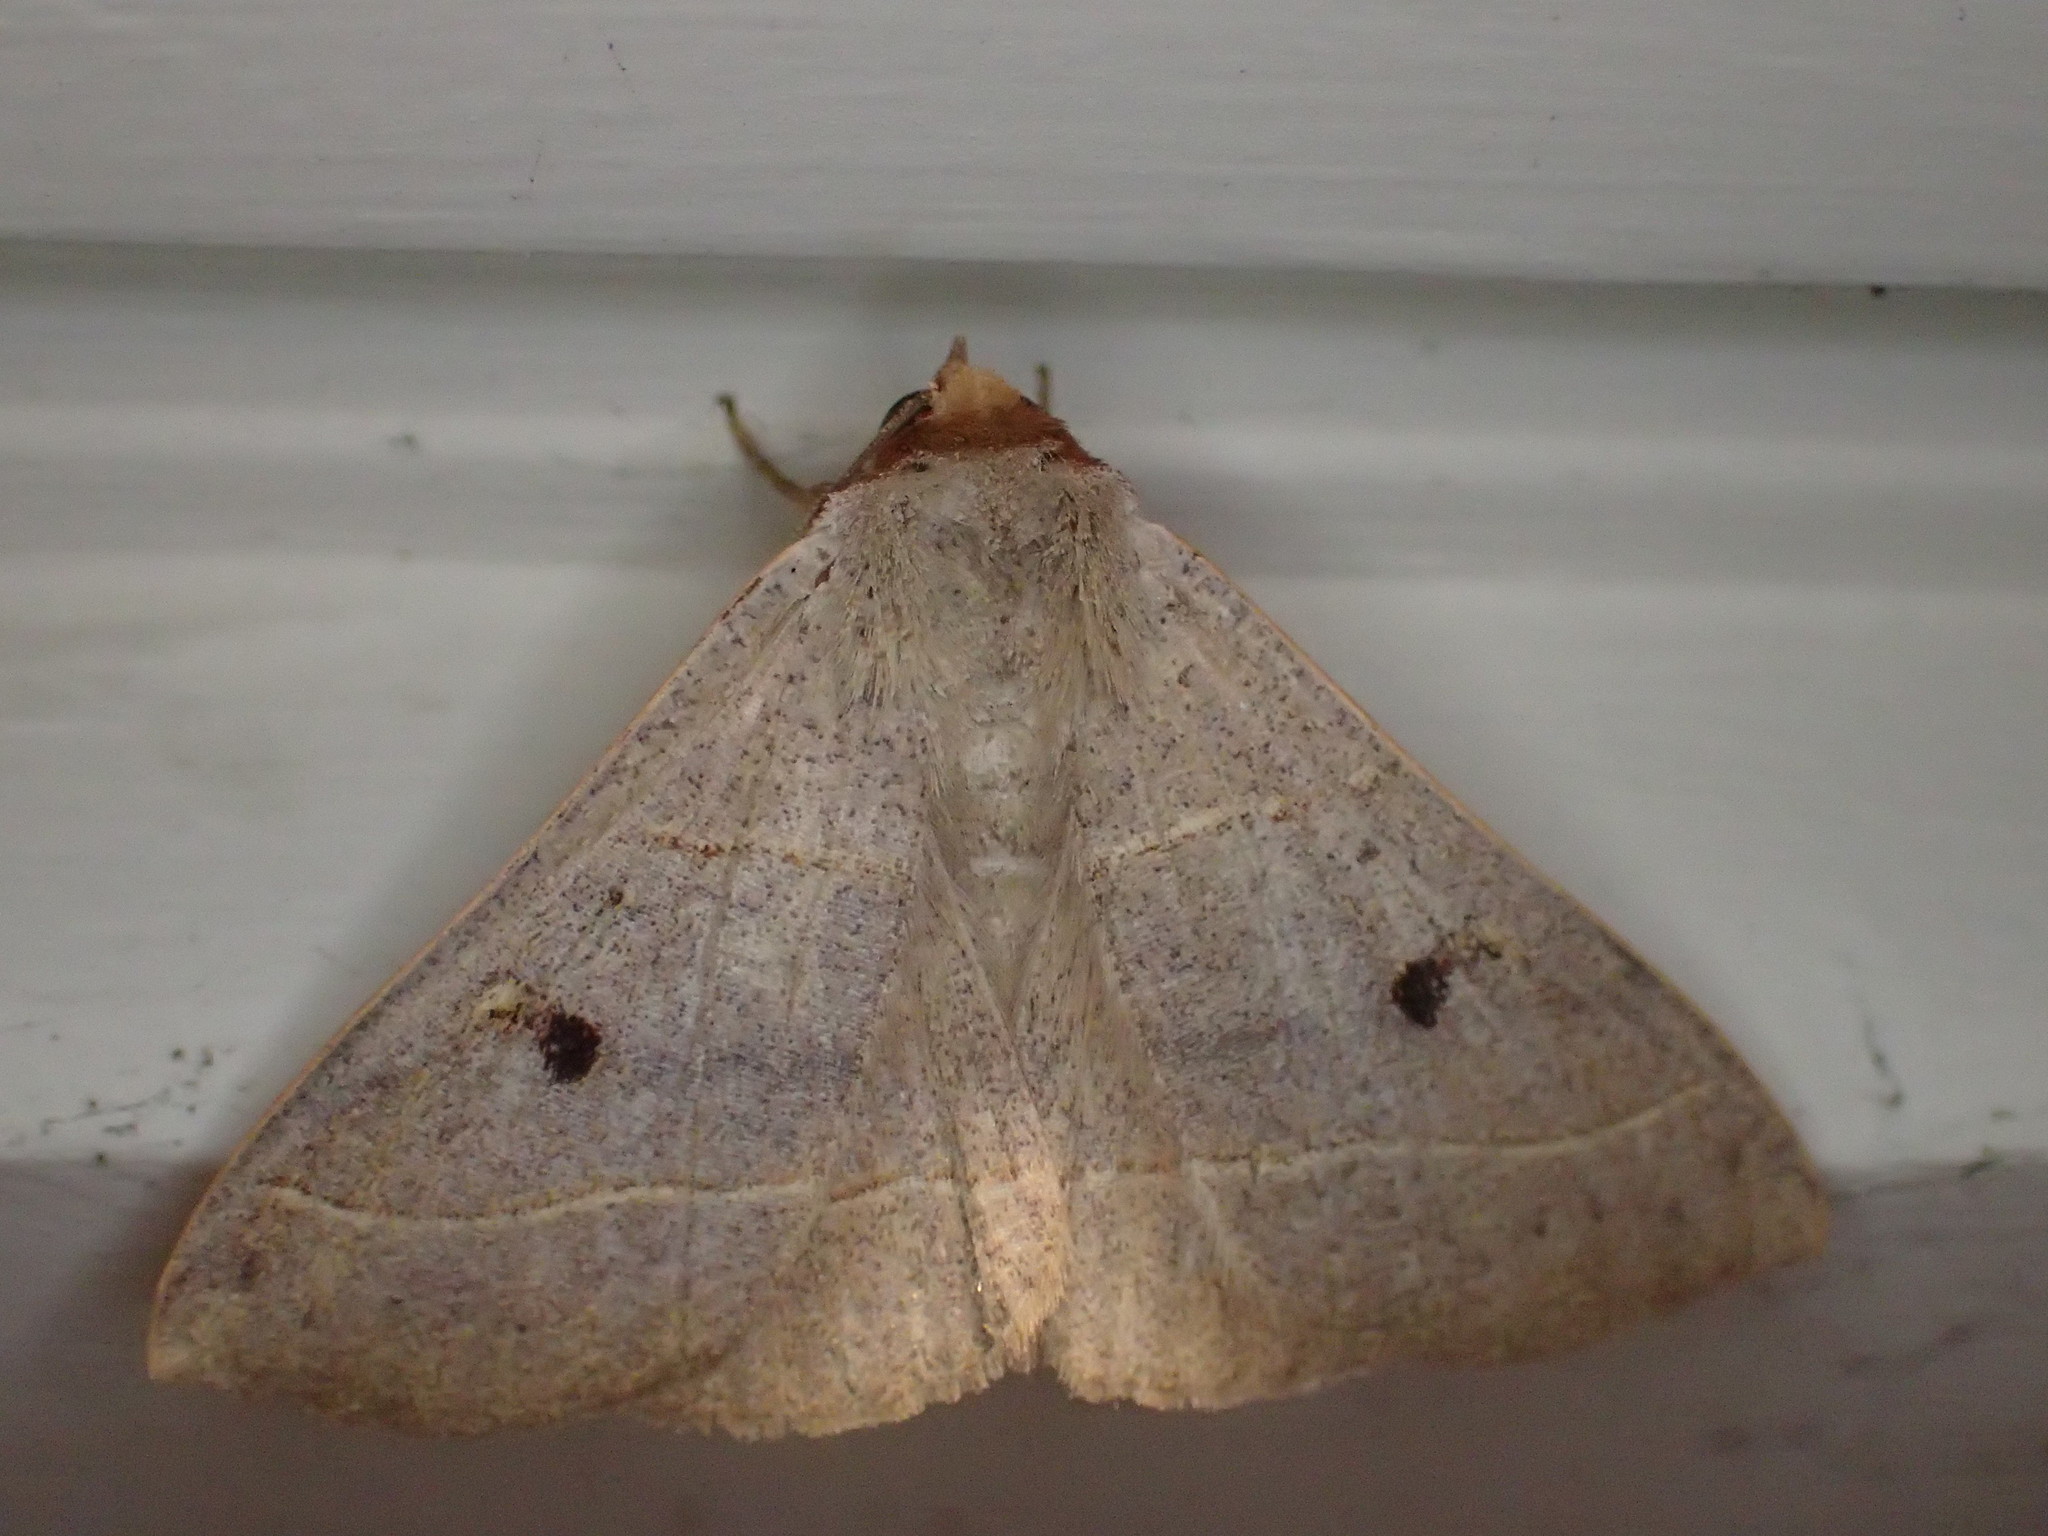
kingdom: Animalia
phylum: Arthropoda
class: Insecta
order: Lepidoptera
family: Erebidae
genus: Panopoda
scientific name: Panopoda carneicosta
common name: Brown panopoda moth
